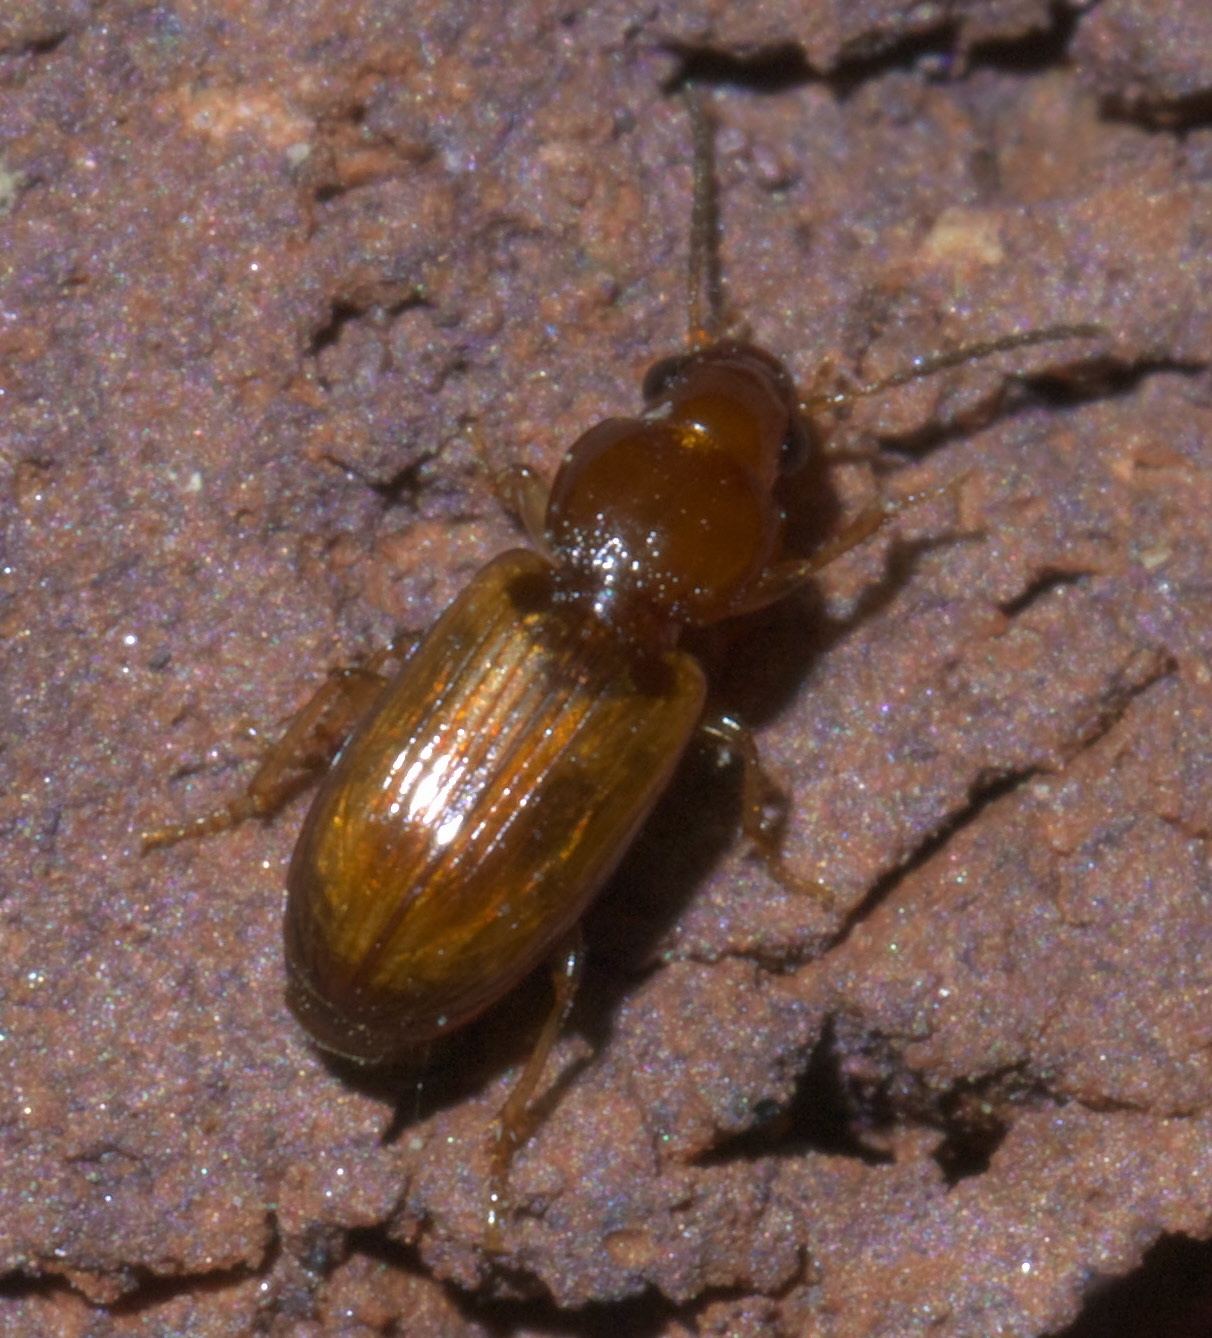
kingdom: Animalia
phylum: Arthropoda
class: Insecta
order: Coleoptera
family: Carabidae
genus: Acupalpus
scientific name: Acupalpus testaceus
